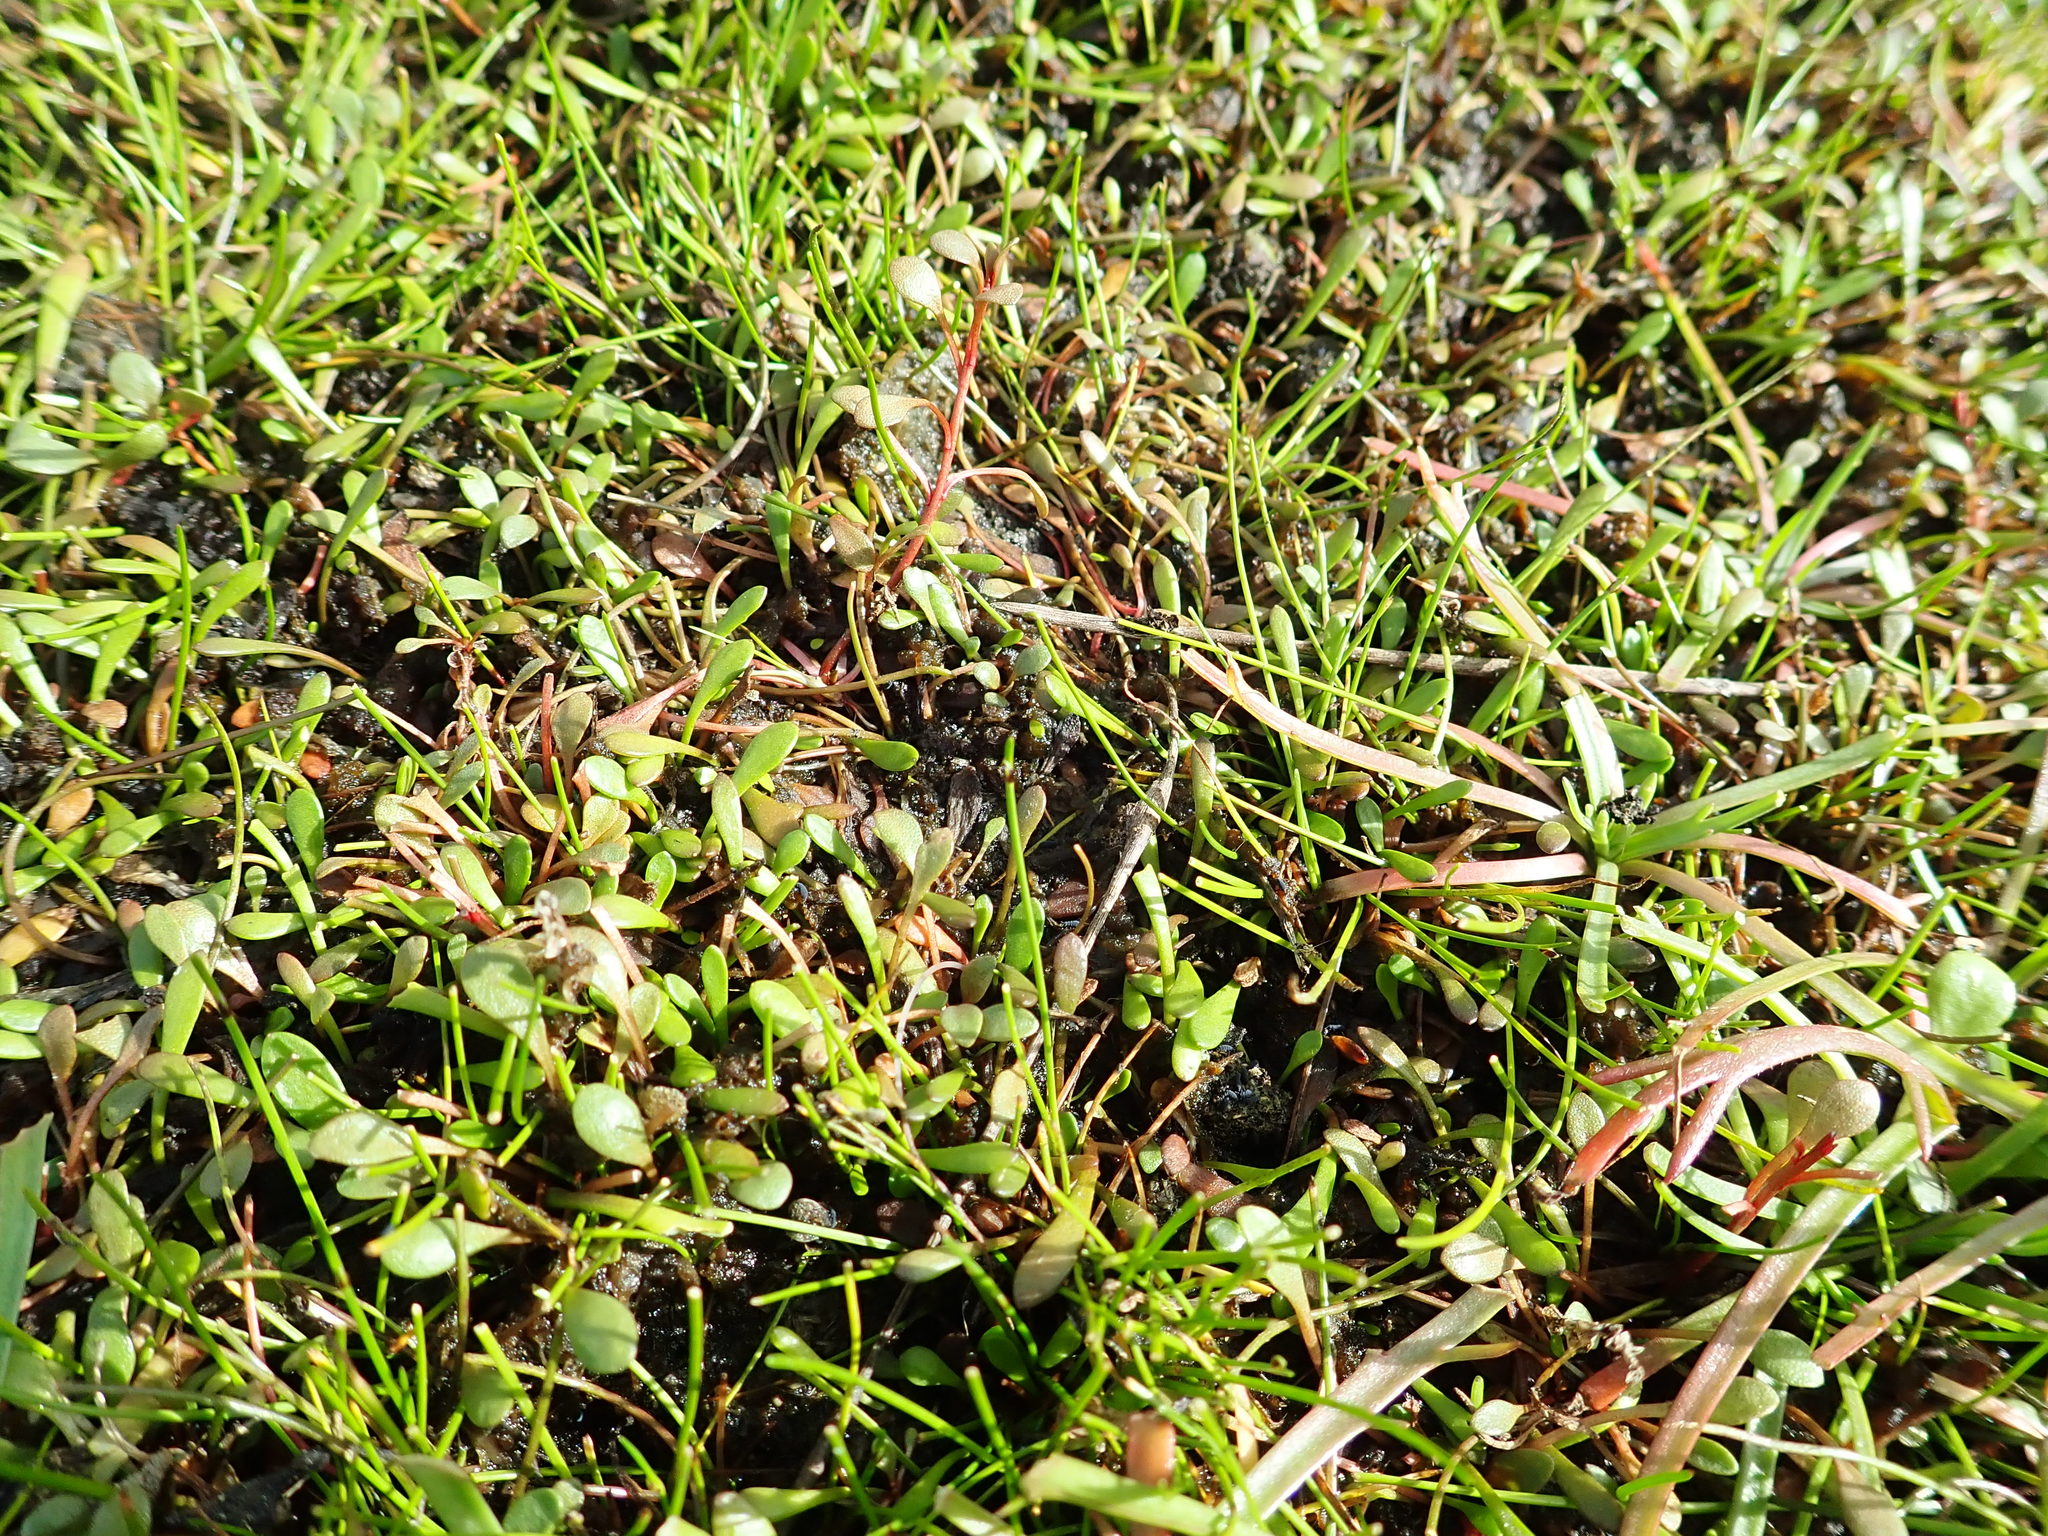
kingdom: Plantae
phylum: Tracheophyta
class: Magnoliopsida
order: Ericales
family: Primulaceae
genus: Samolus
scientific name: Samolus repens
